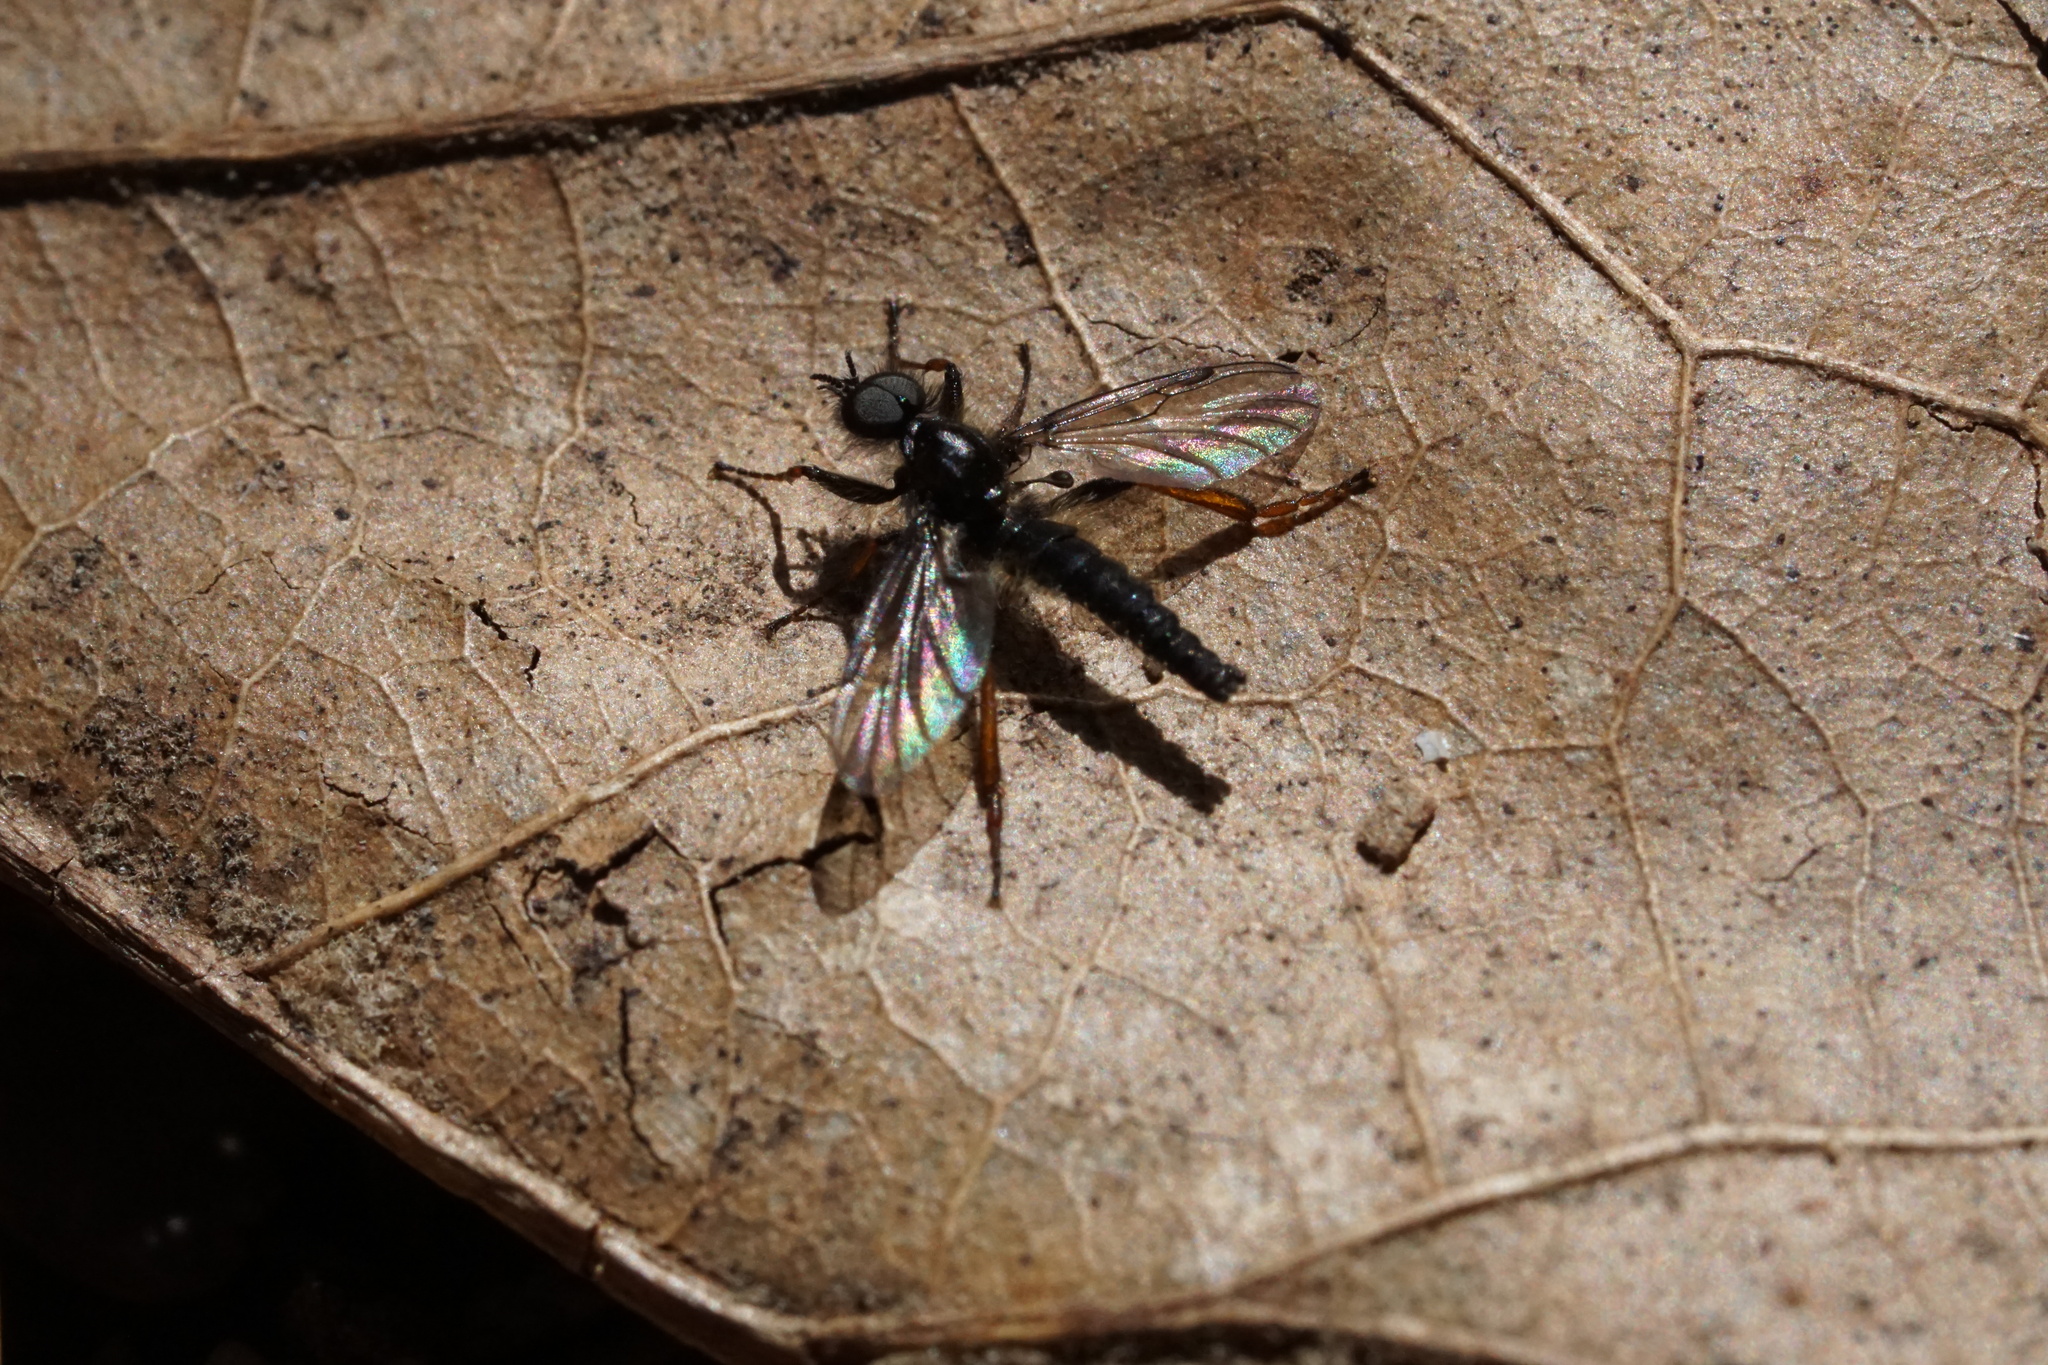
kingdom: Animalia
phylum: Arthropoda
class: Insecta
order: Diptera
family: Bibionidae
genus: Bibio
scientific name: Bibio lanigerus
